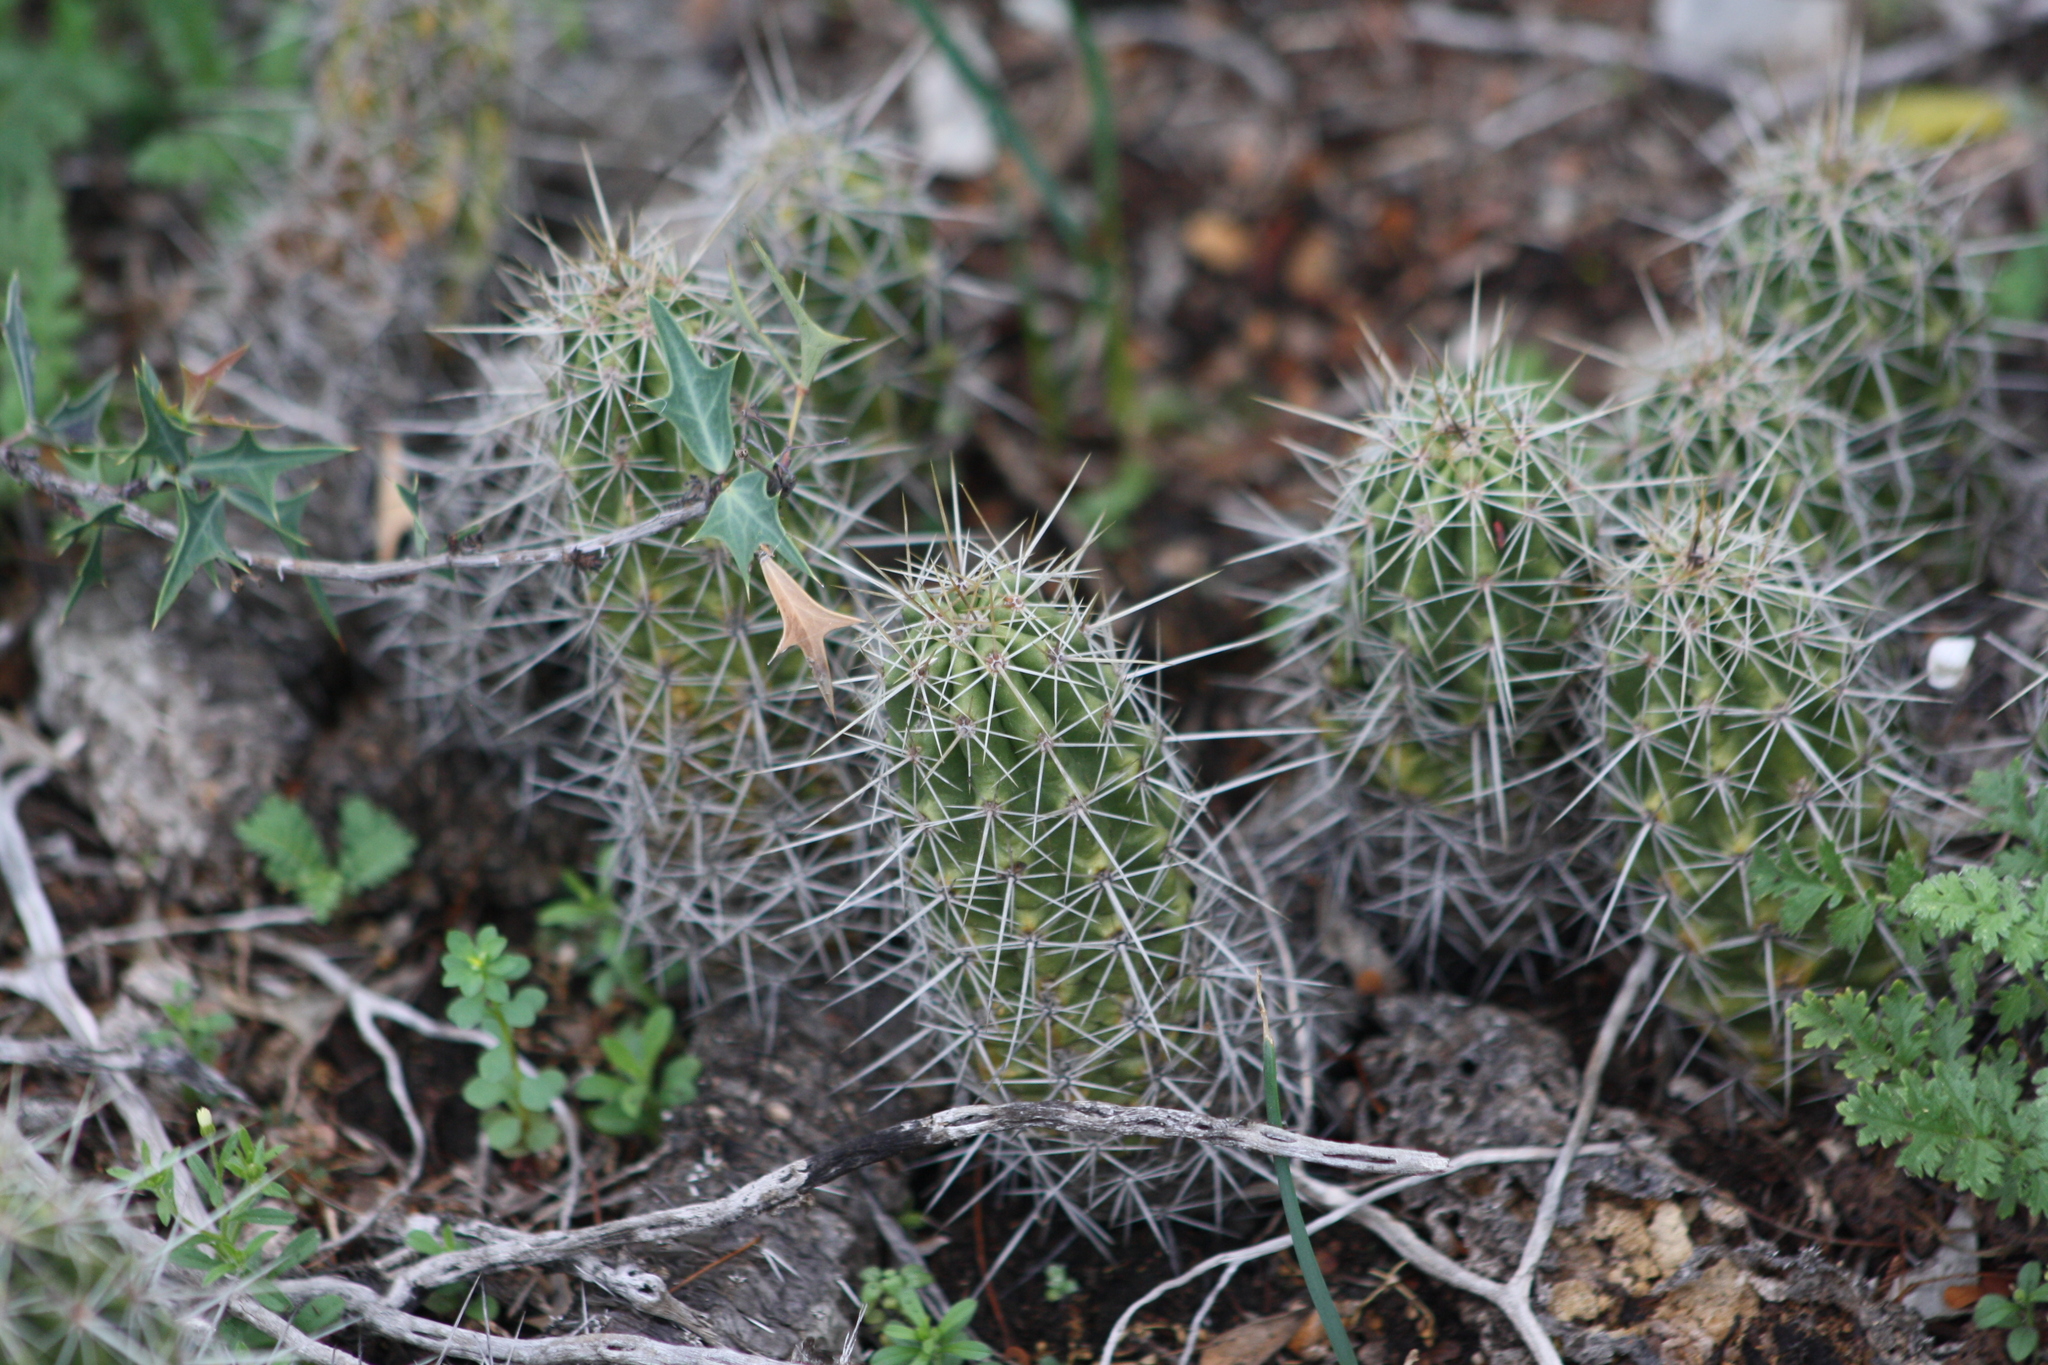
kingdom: Plantae
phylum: Tracheophyta
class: Magnoliopsida
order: Caryophyllales
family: Cactaceae
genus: Echinocereus
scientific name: Echinocereus enneacanthus
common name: Pitaya
